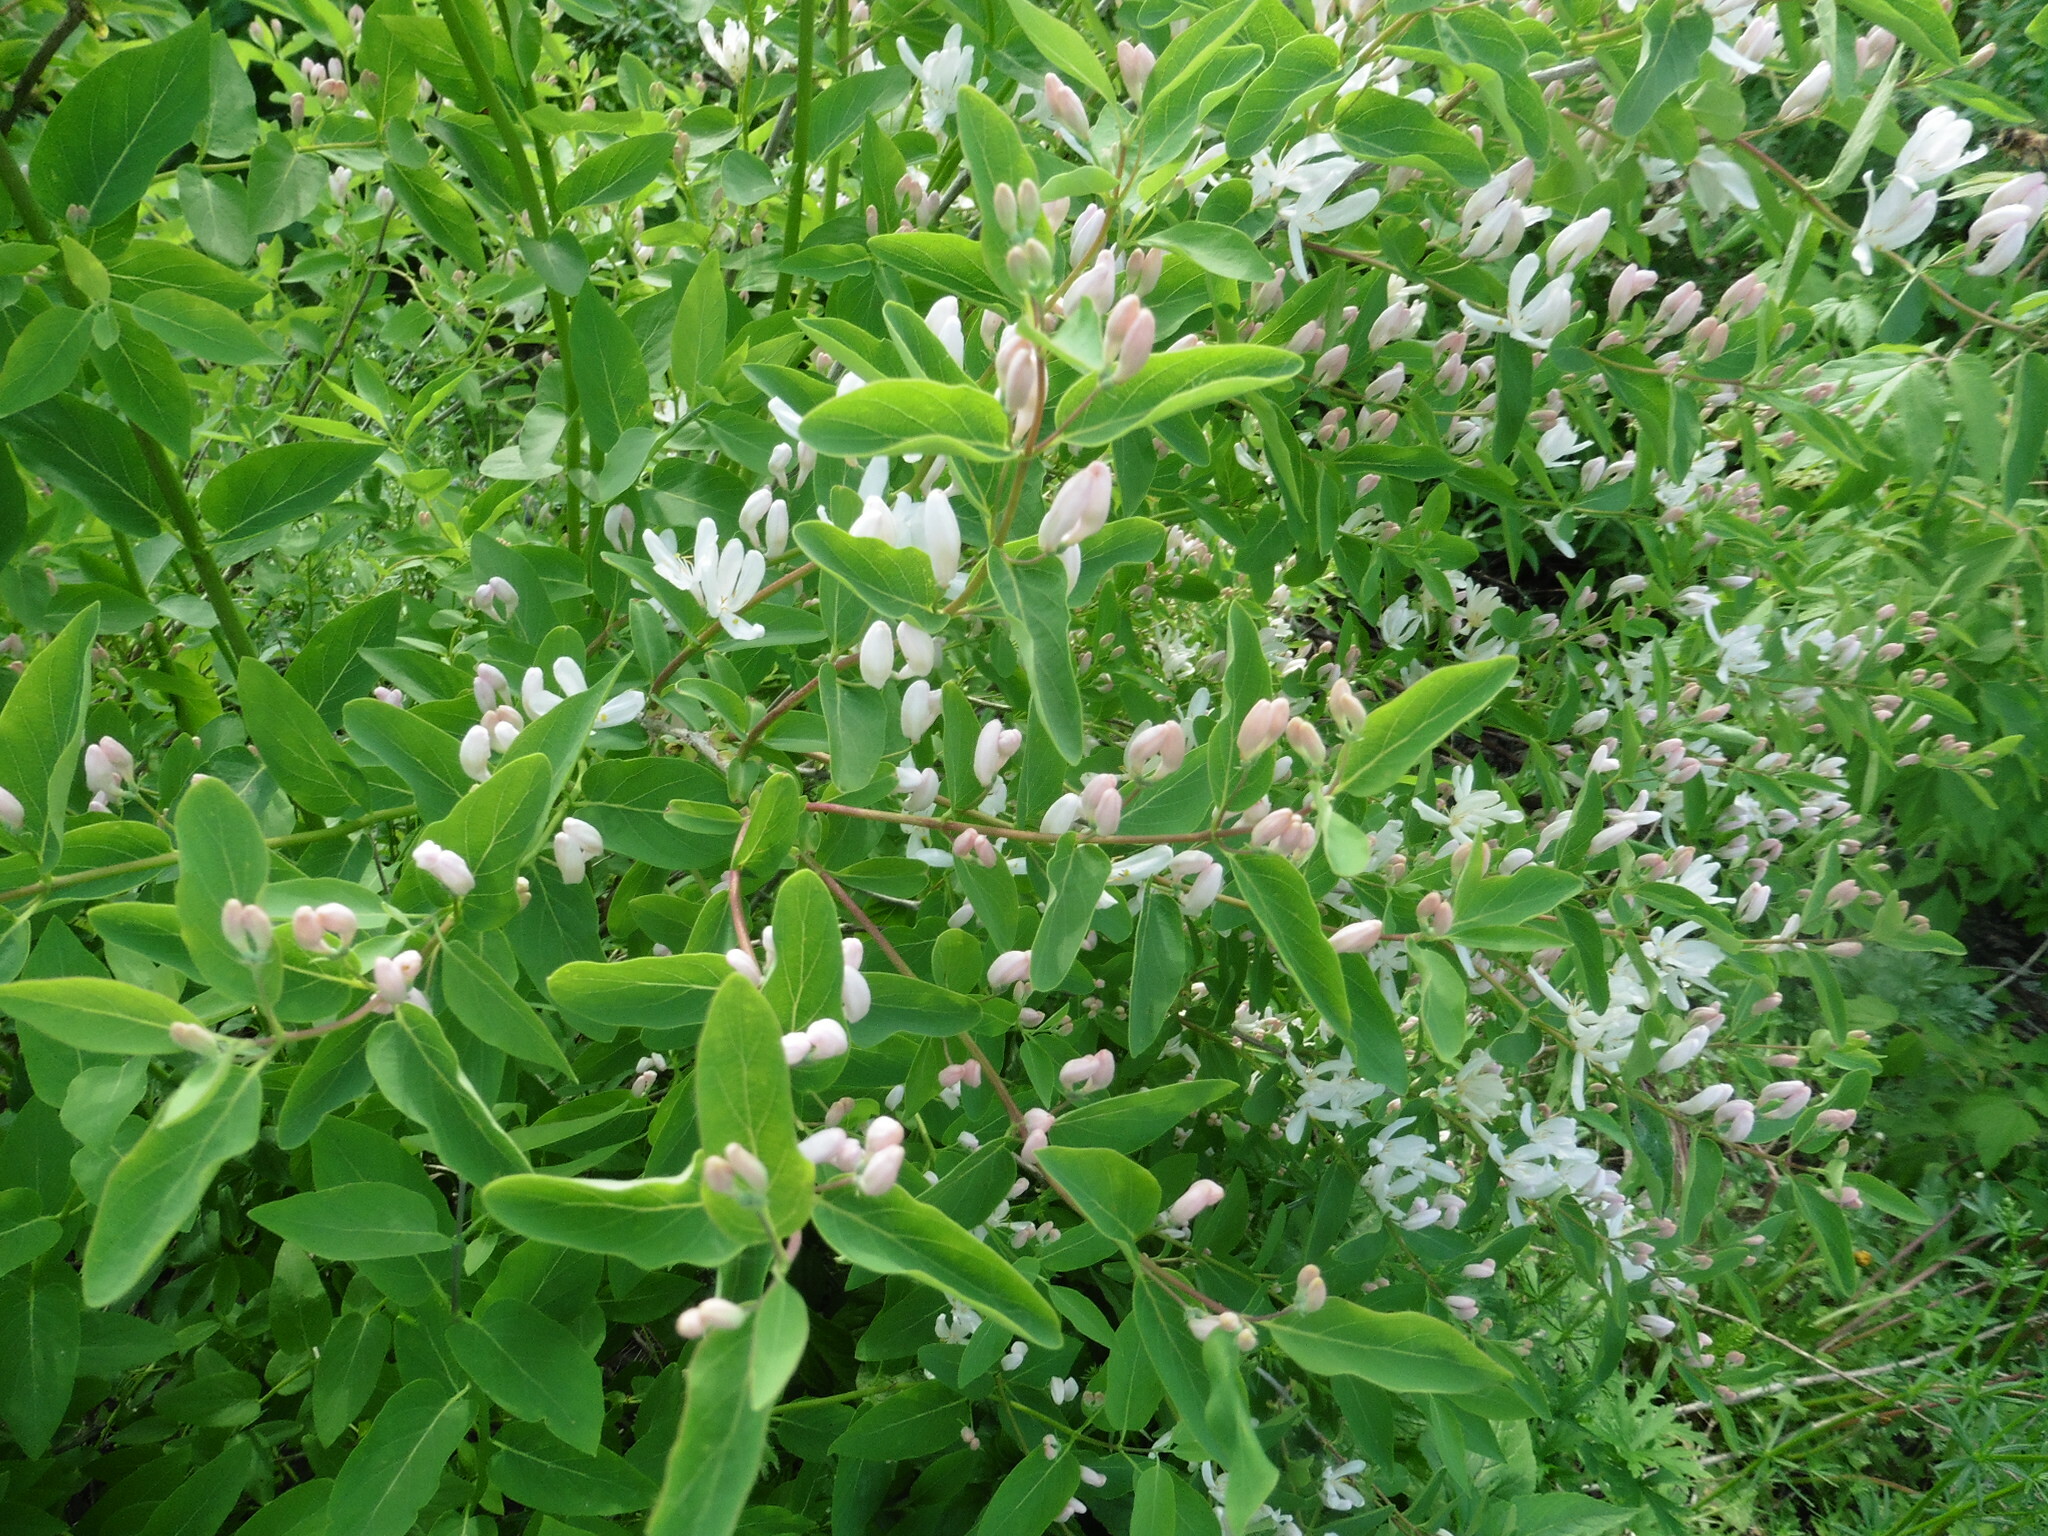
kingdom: Plantae
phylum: Tracheophyta
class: Magnoliopsida
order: Dipsacales
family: Caprifoliaceae
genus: Lonicera
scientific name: Lonicera tatarica
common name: Tatarian honeysuckle
